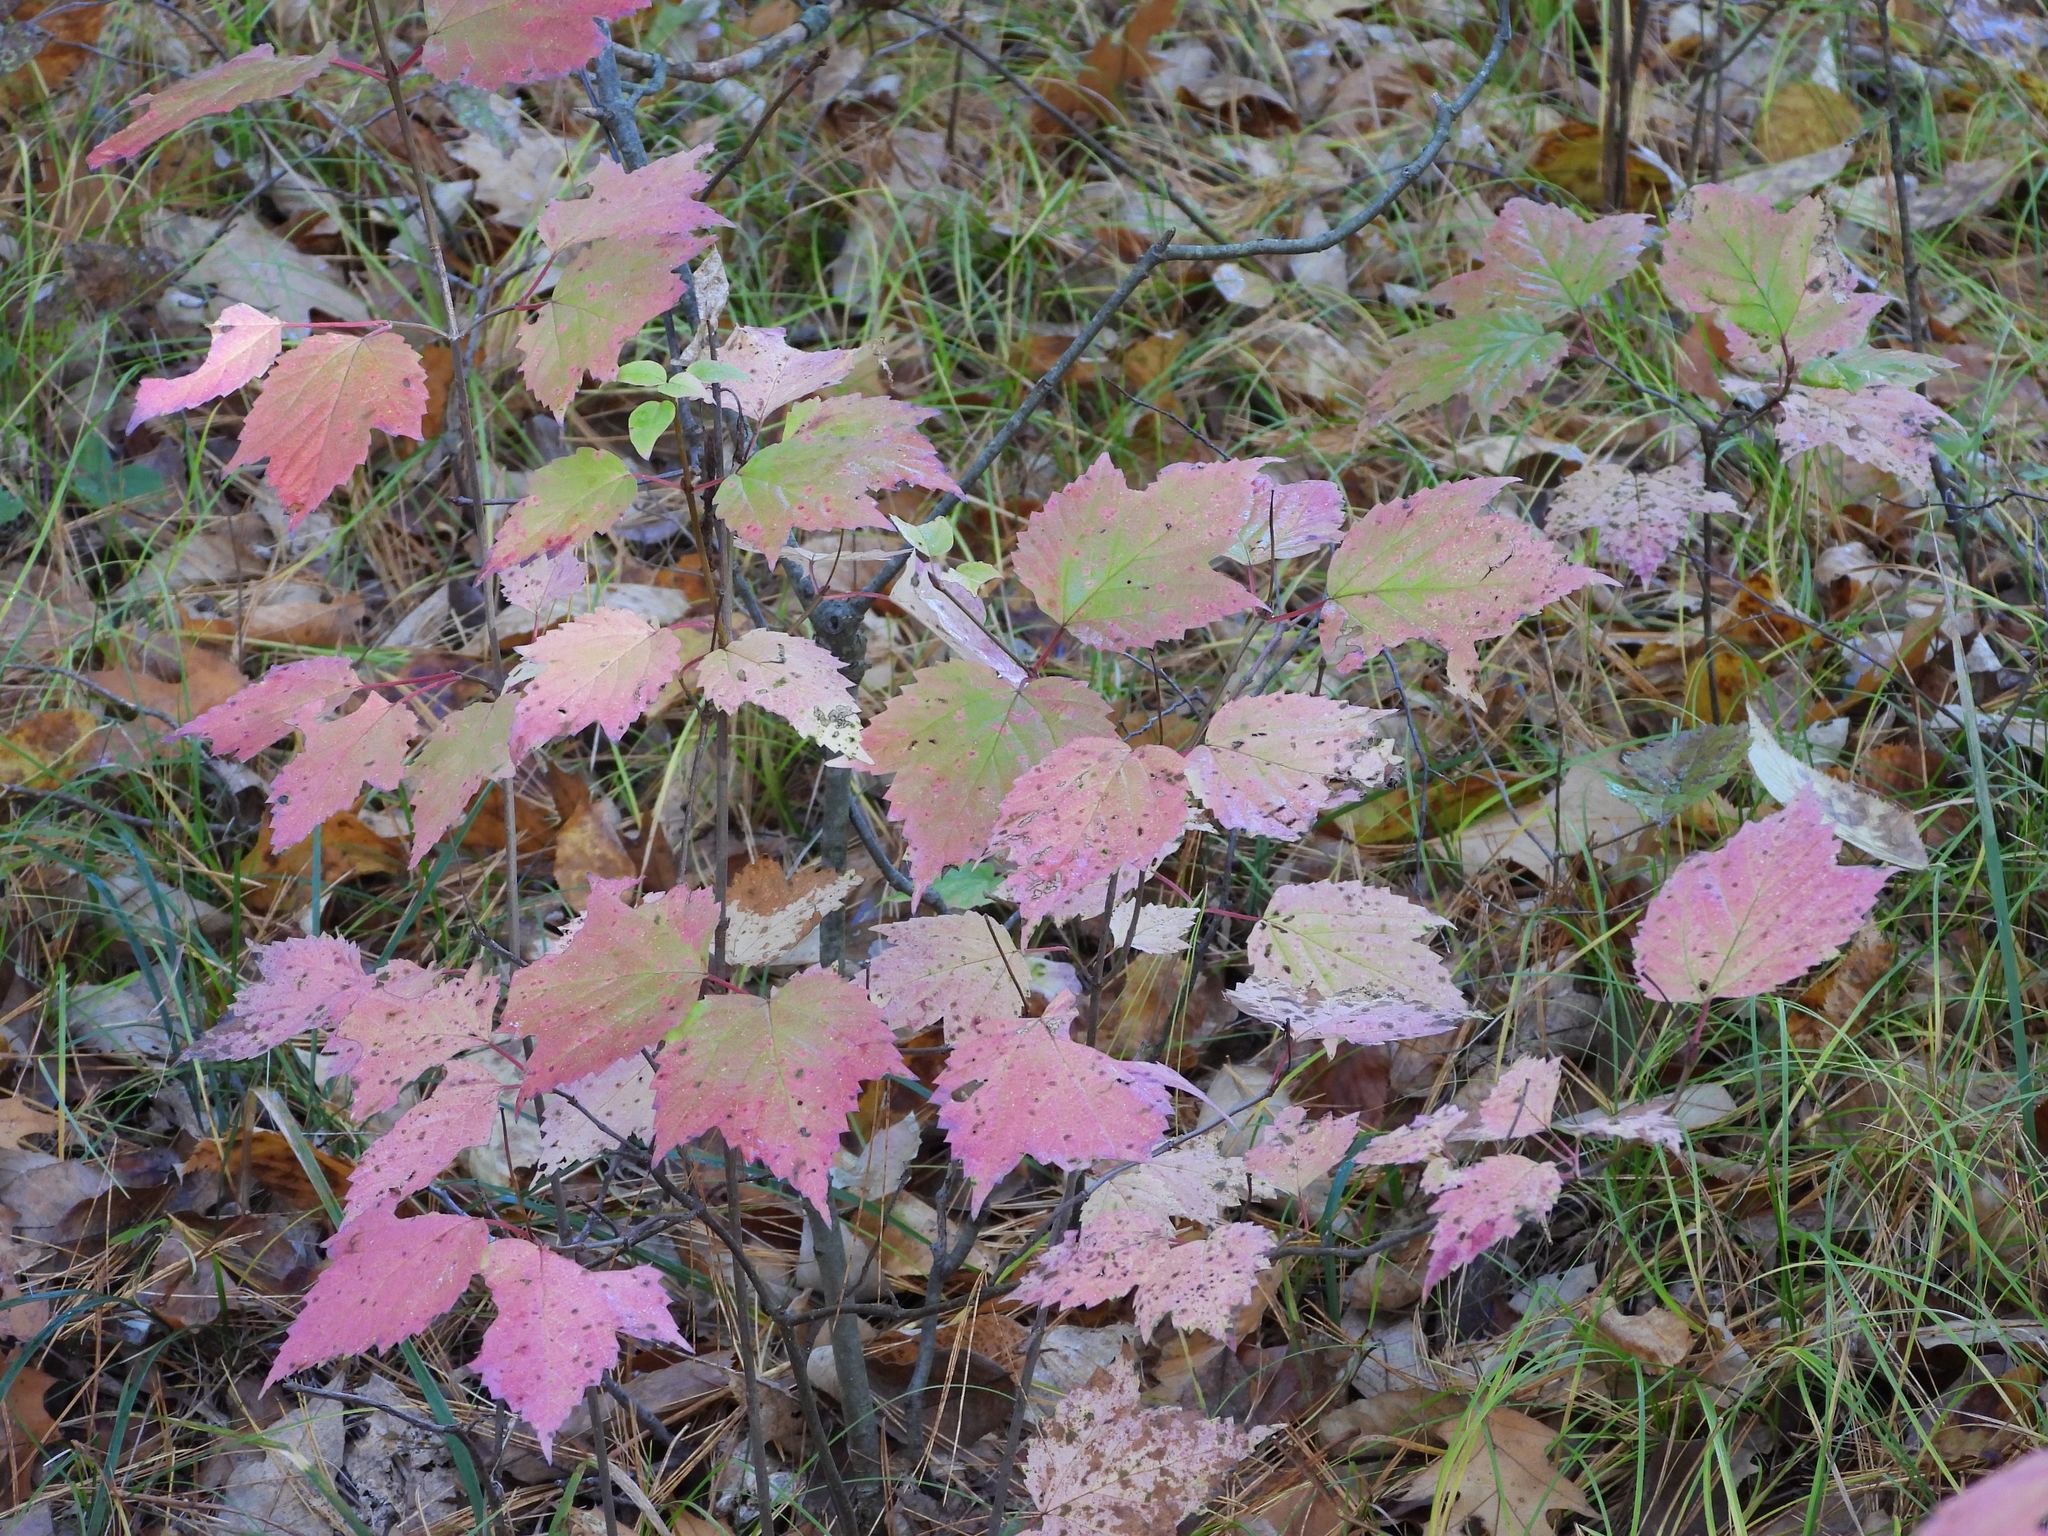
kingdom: Plantae
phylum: Tracheophyta
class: Magnoliopsida
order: Dipsacales
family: Viburnaceae
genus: Viburnum
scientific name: Viburnum acerifolium
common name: Dockmackie
